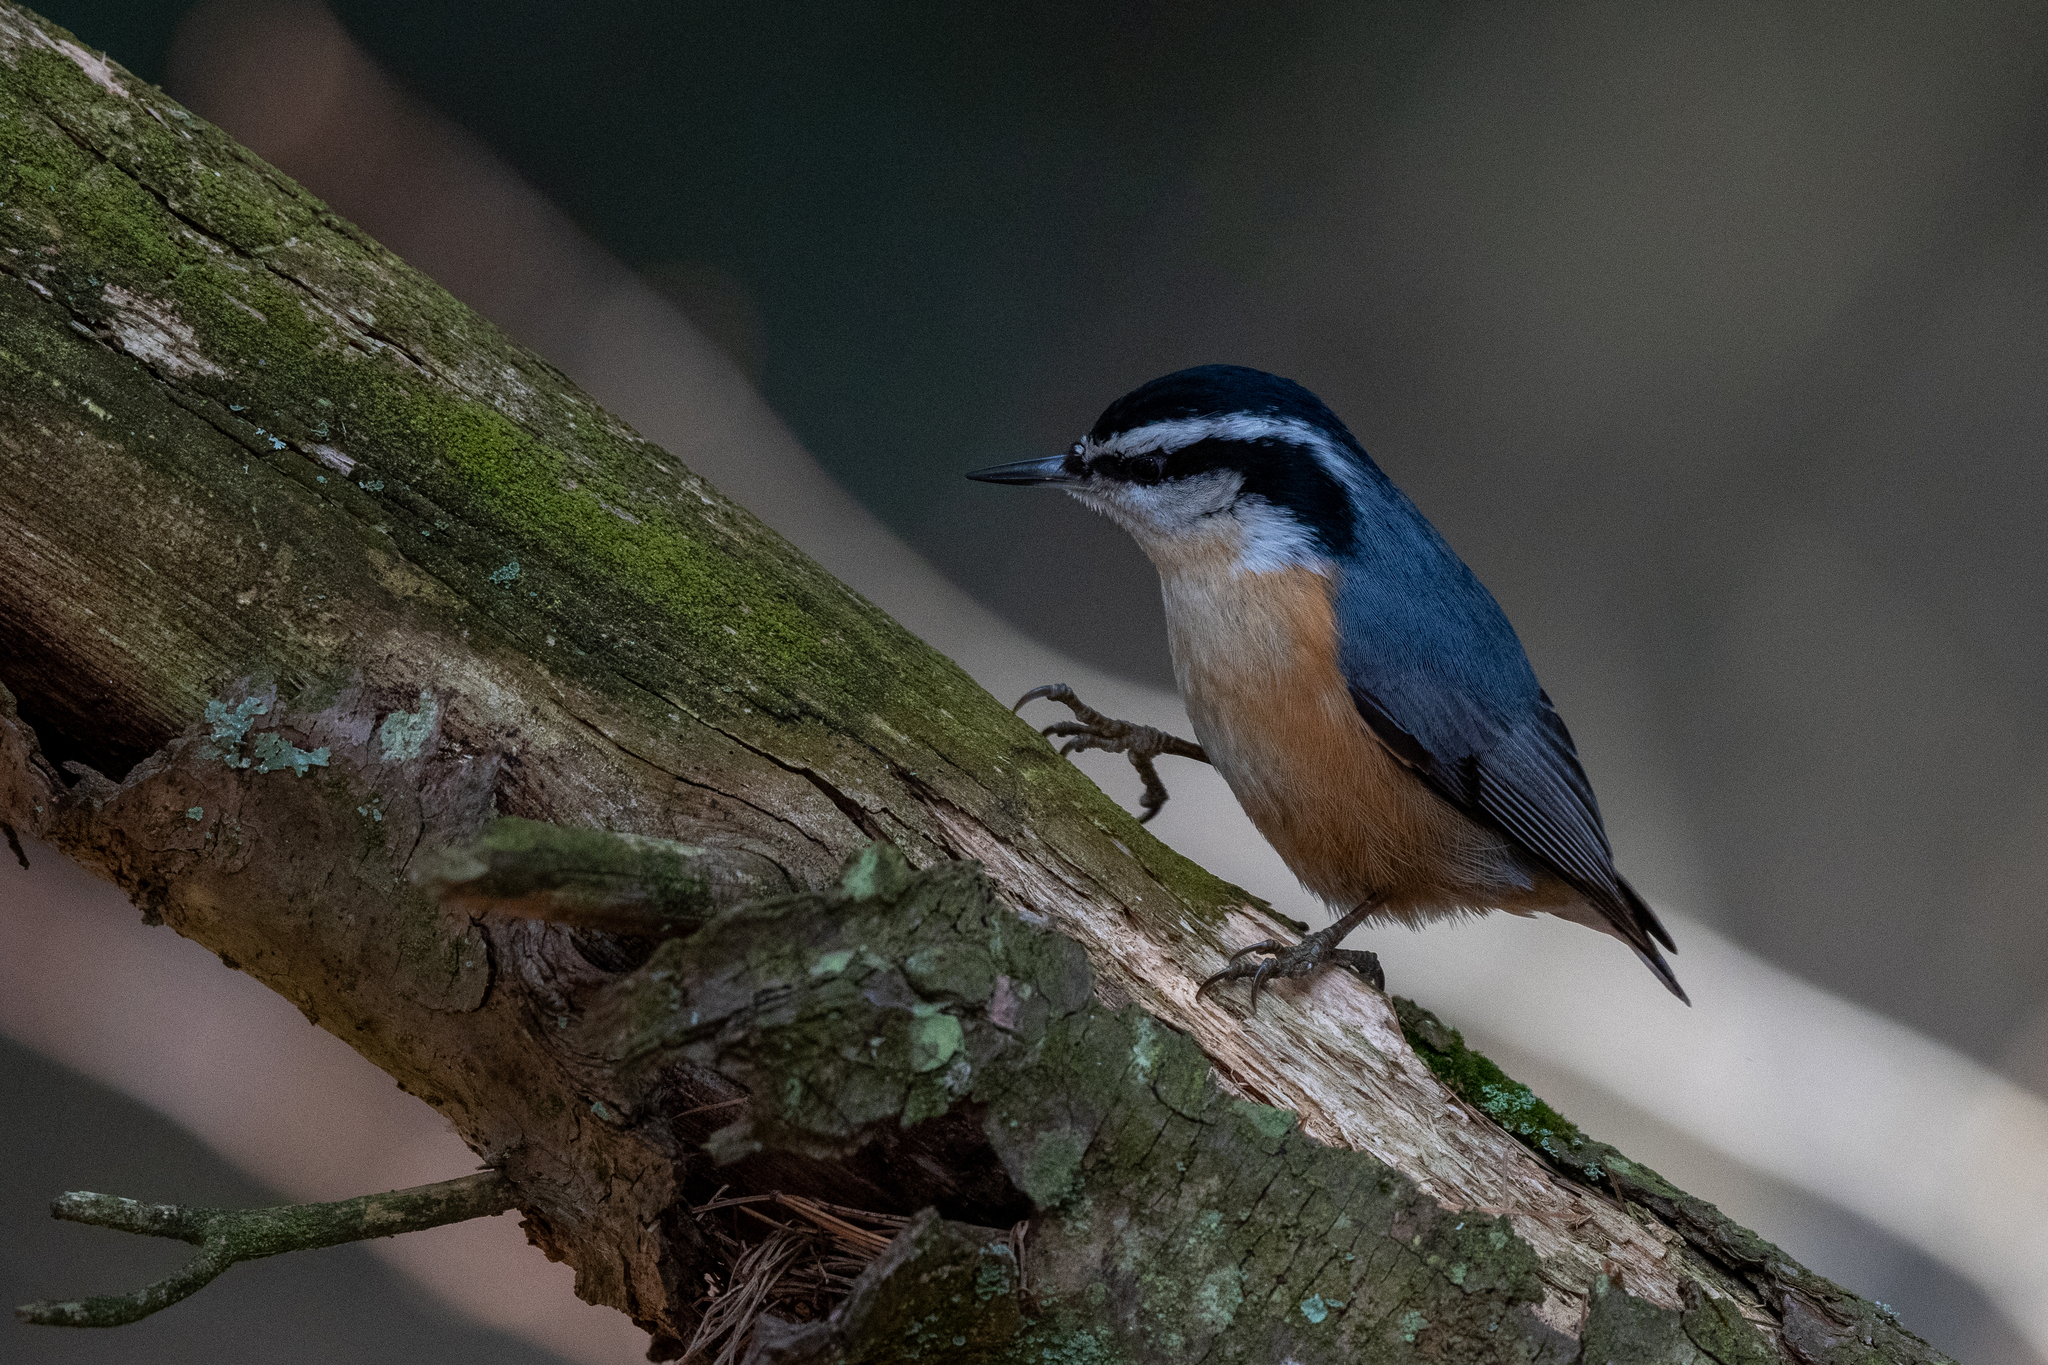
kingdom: Animalia
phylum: Chordata
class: Aves
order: Passeriformes
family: Sittidae
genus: Sitta
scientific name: Sitta canadensis
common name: Red-breasted nuthatch
